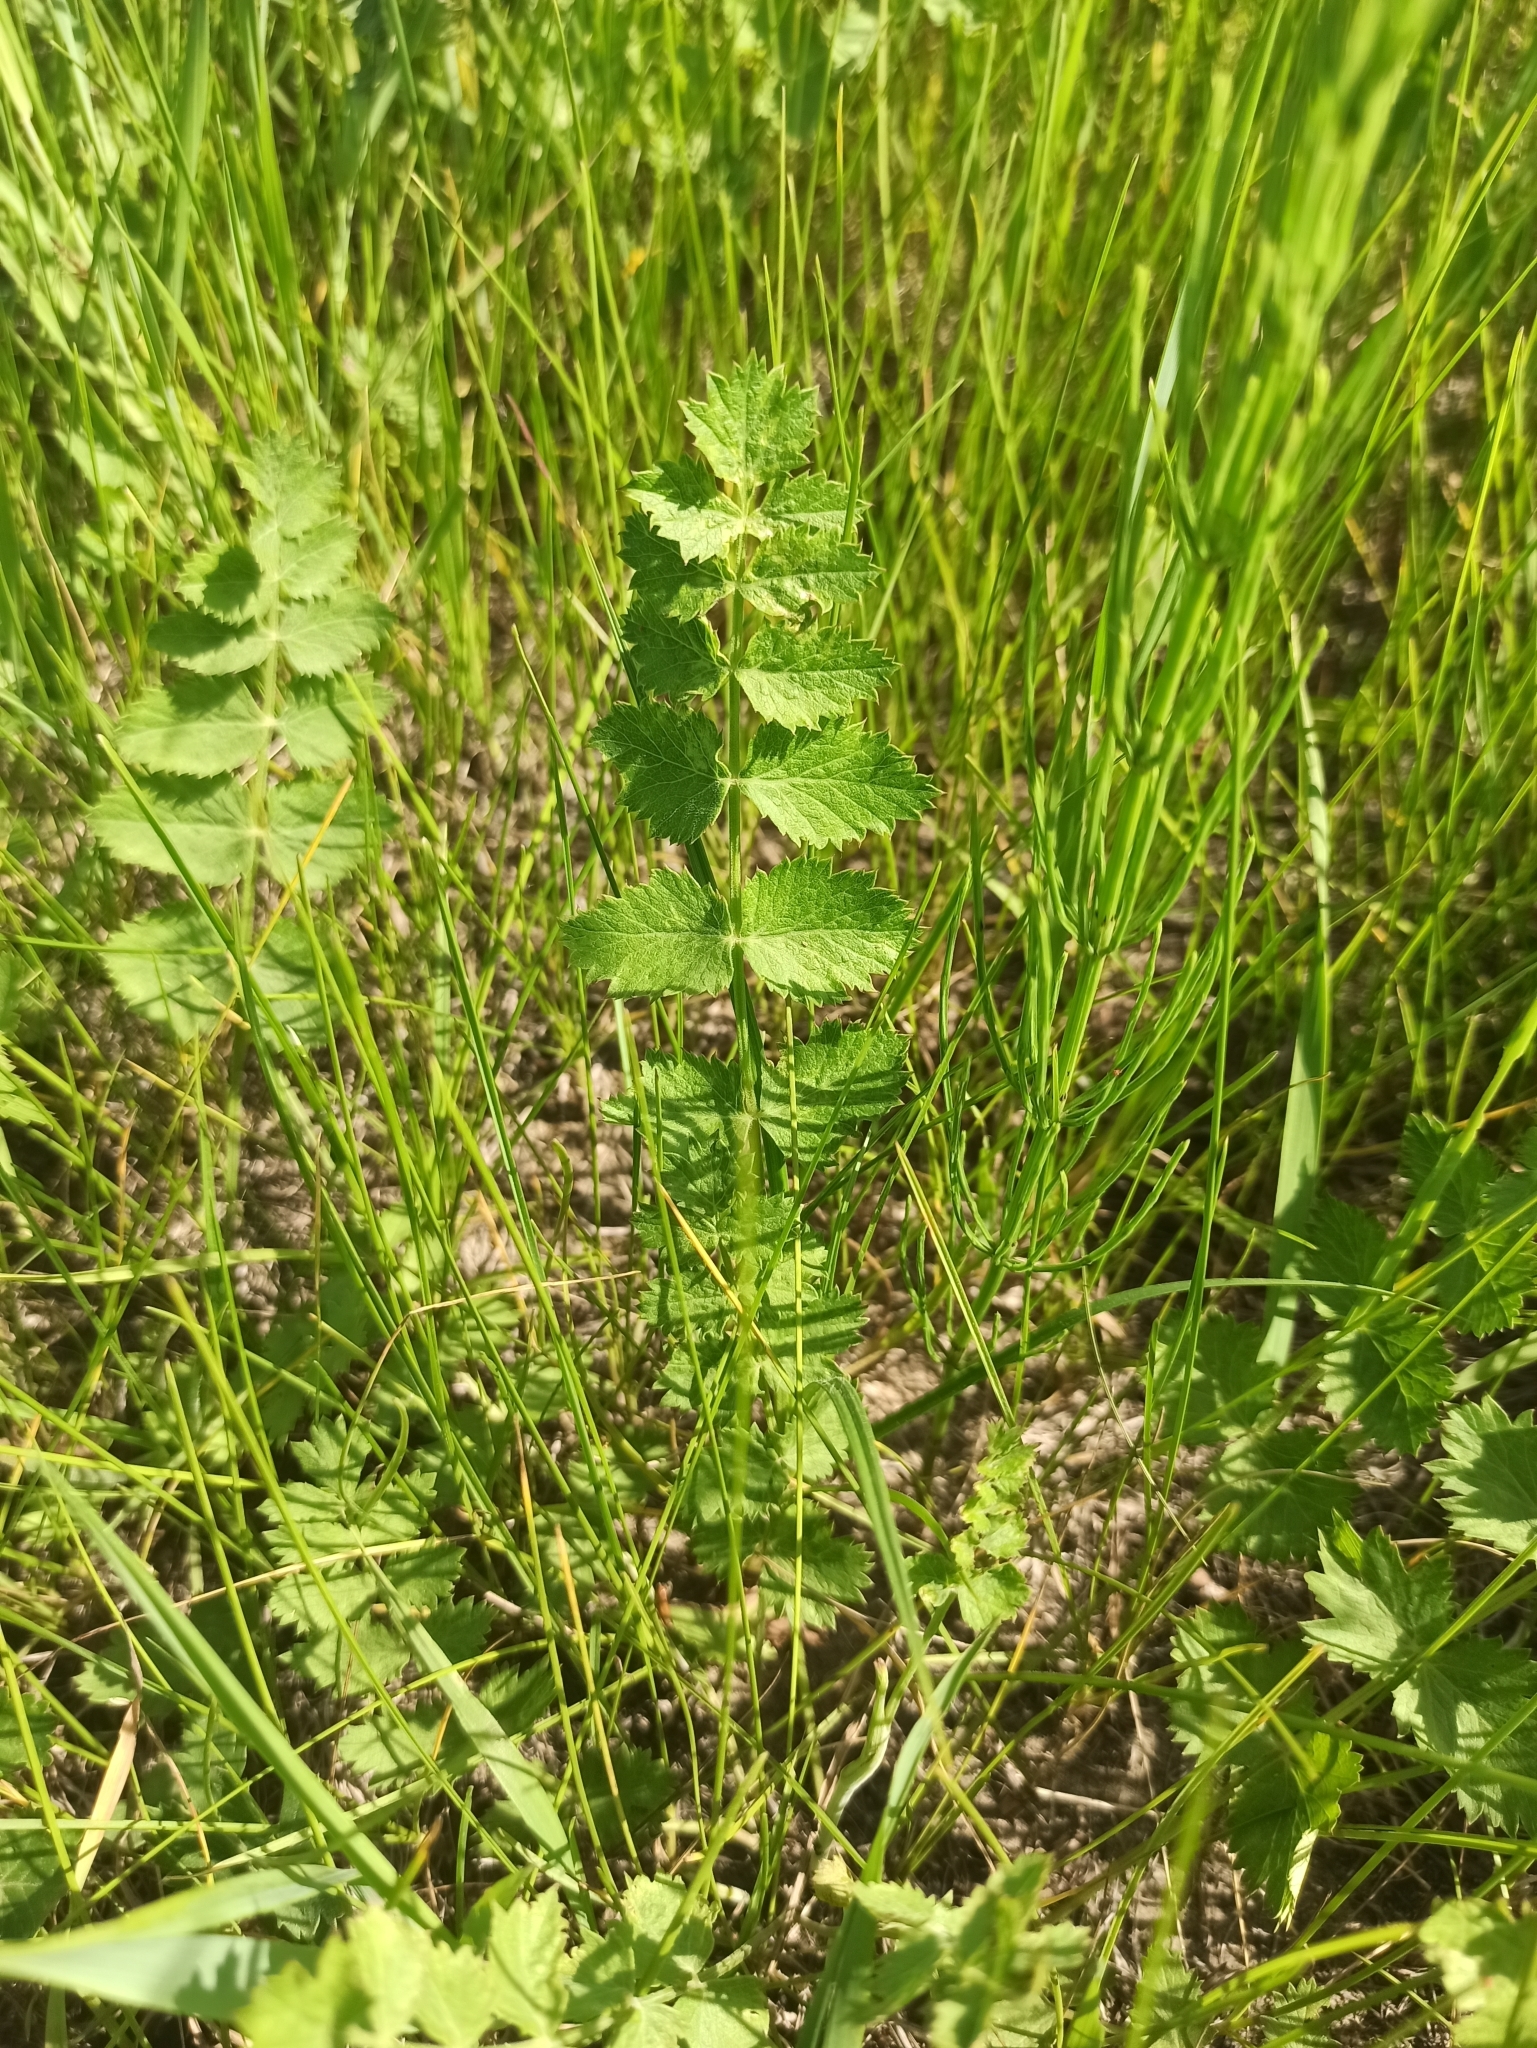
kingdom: Plantae
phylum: Tracheophyta
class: Magnoliopsida
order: Apiales
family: Apiaceae
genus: Pimpinella
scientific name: Pimpinella saxifraga
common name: Burnet-saxifrage
